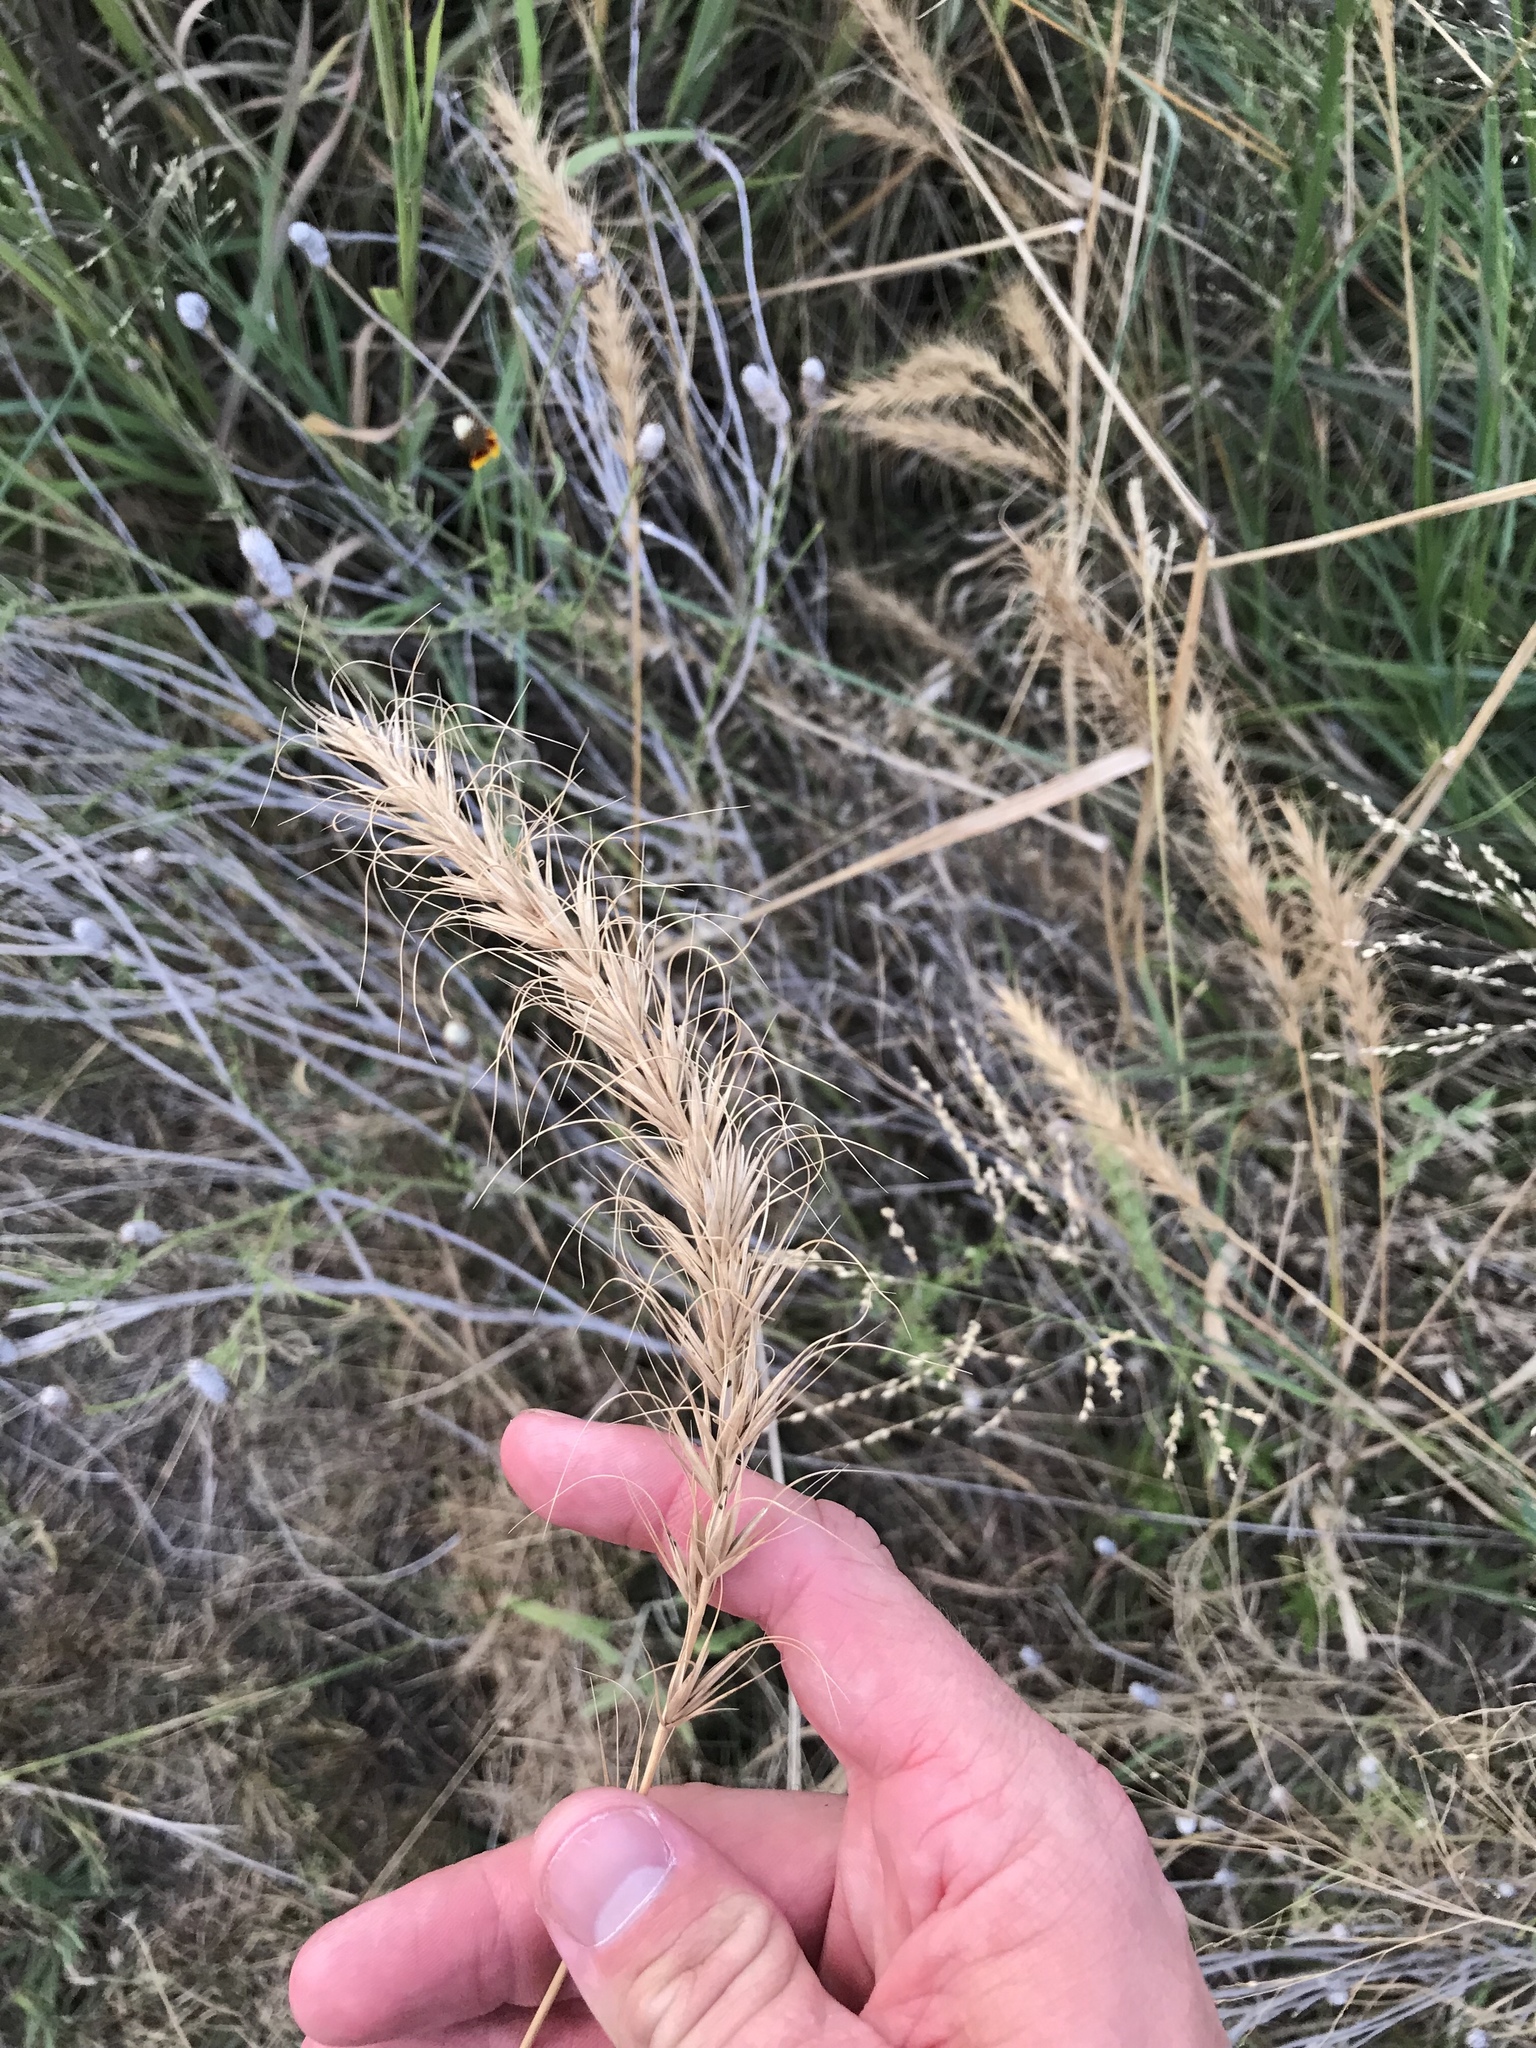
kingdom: Plantae
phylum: Tracheophyta
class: Liliopsida
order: Poales
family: Poaceae
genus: Elymus
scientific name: Elymus canadensis
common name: Canada wild rye
